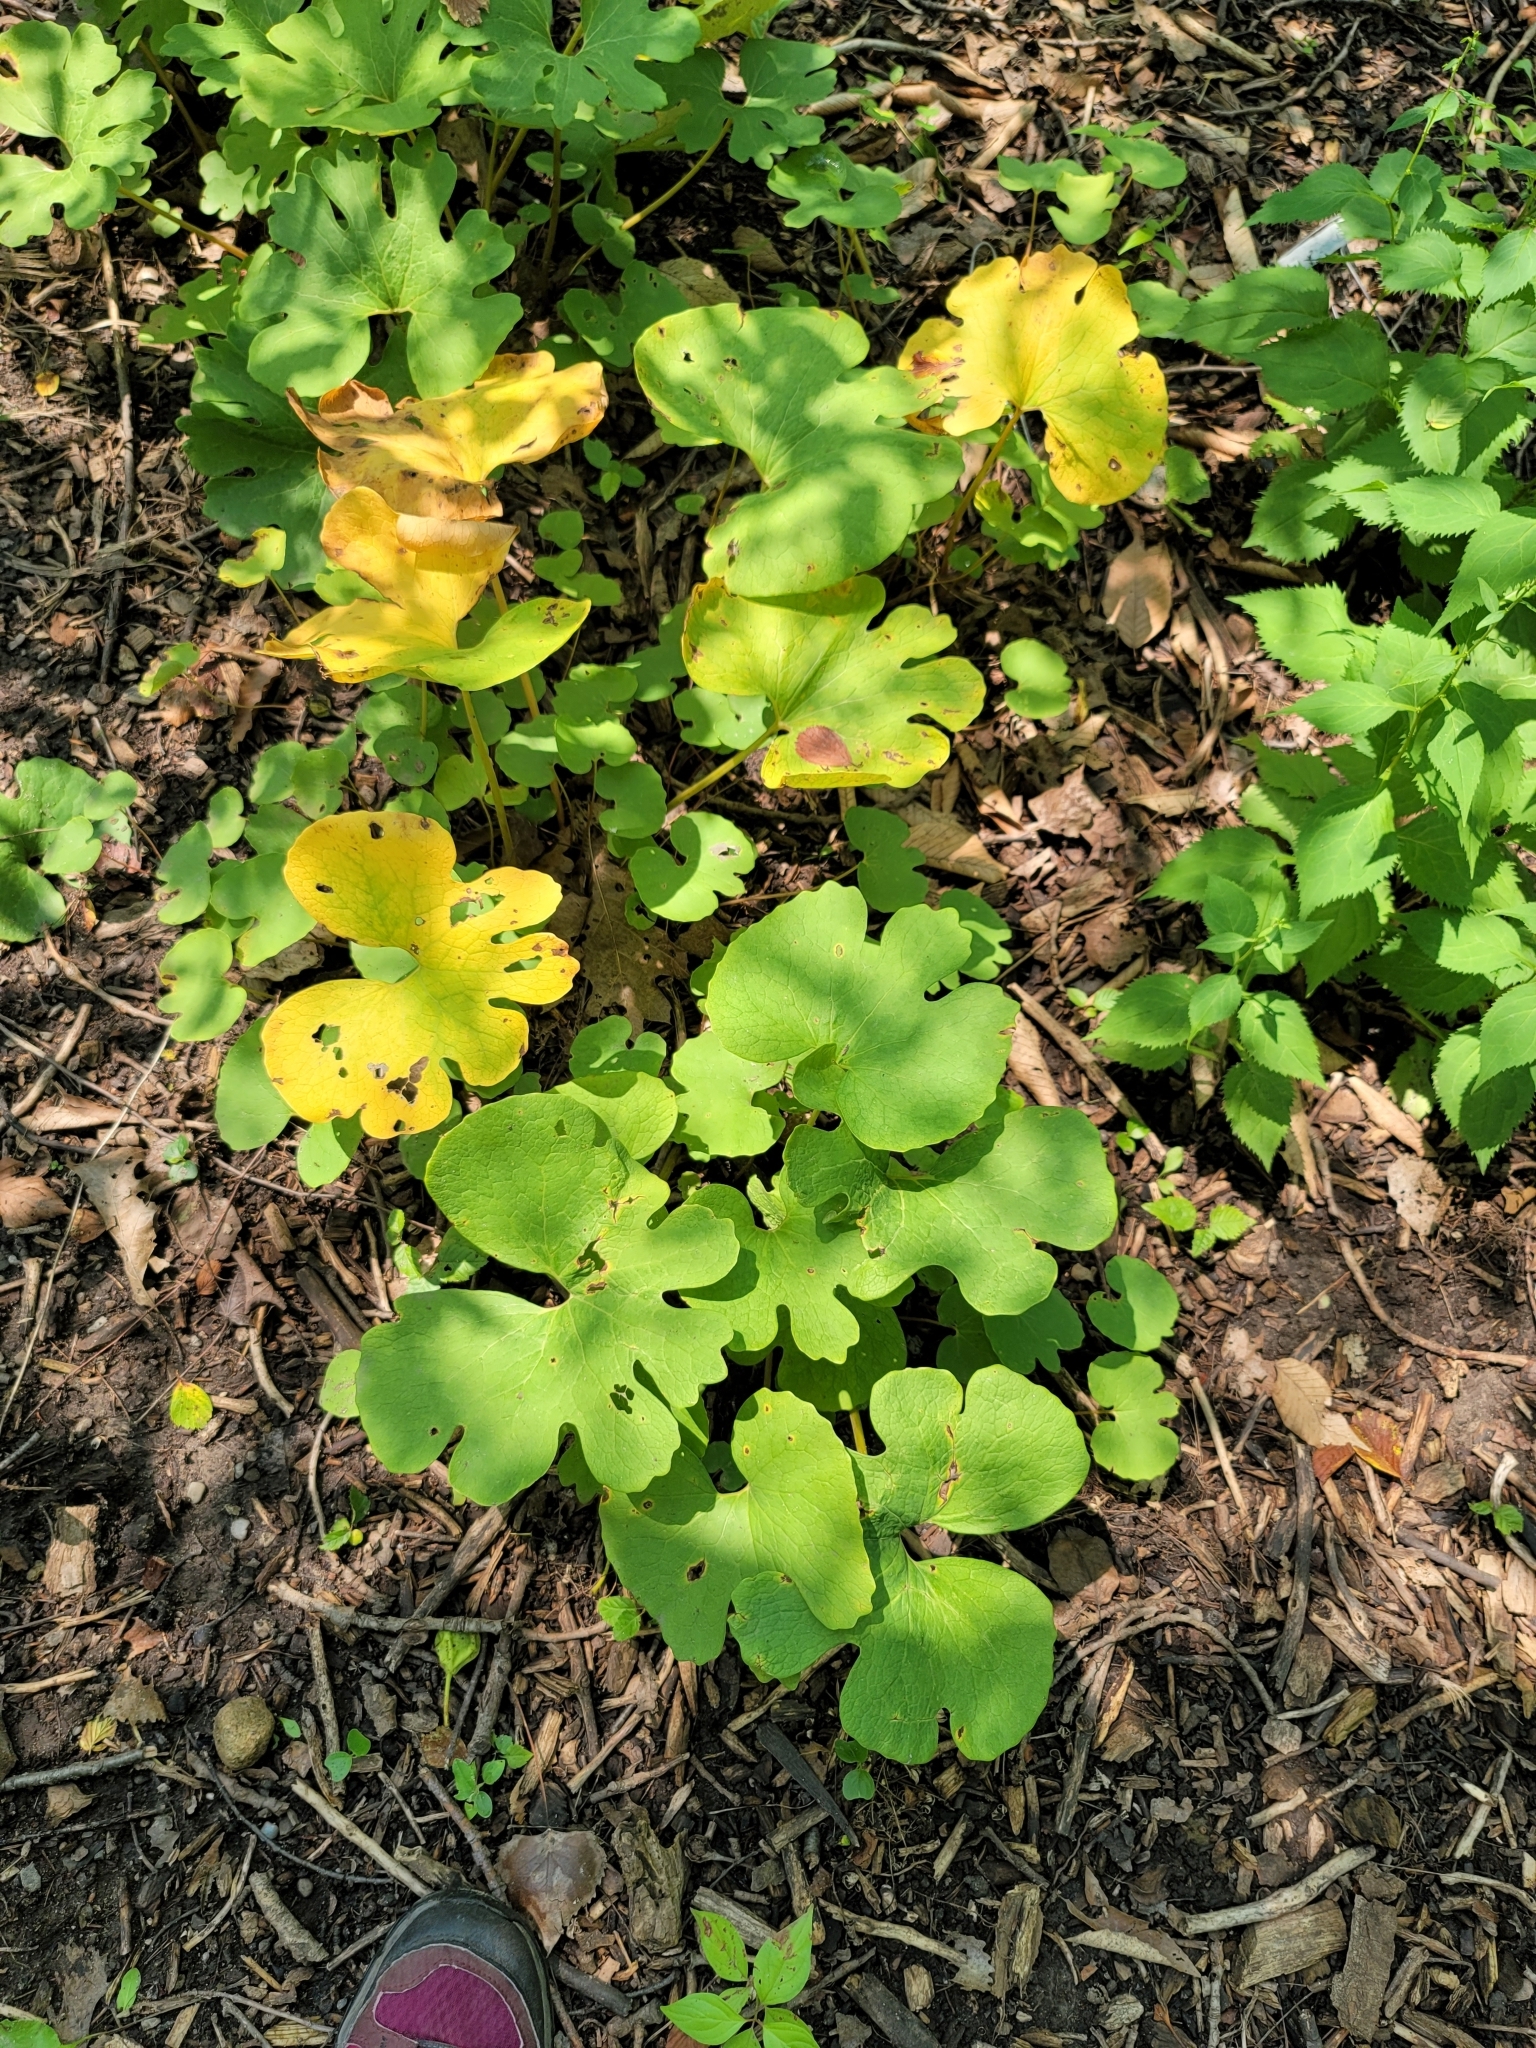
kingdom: Plantae
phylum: Tracheophyta
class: Magnoliopsida
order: Ranunculales
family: Papaveraceae
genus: Sanguinaria
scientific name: Sanguinaria canadensis
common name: Bloodroot
